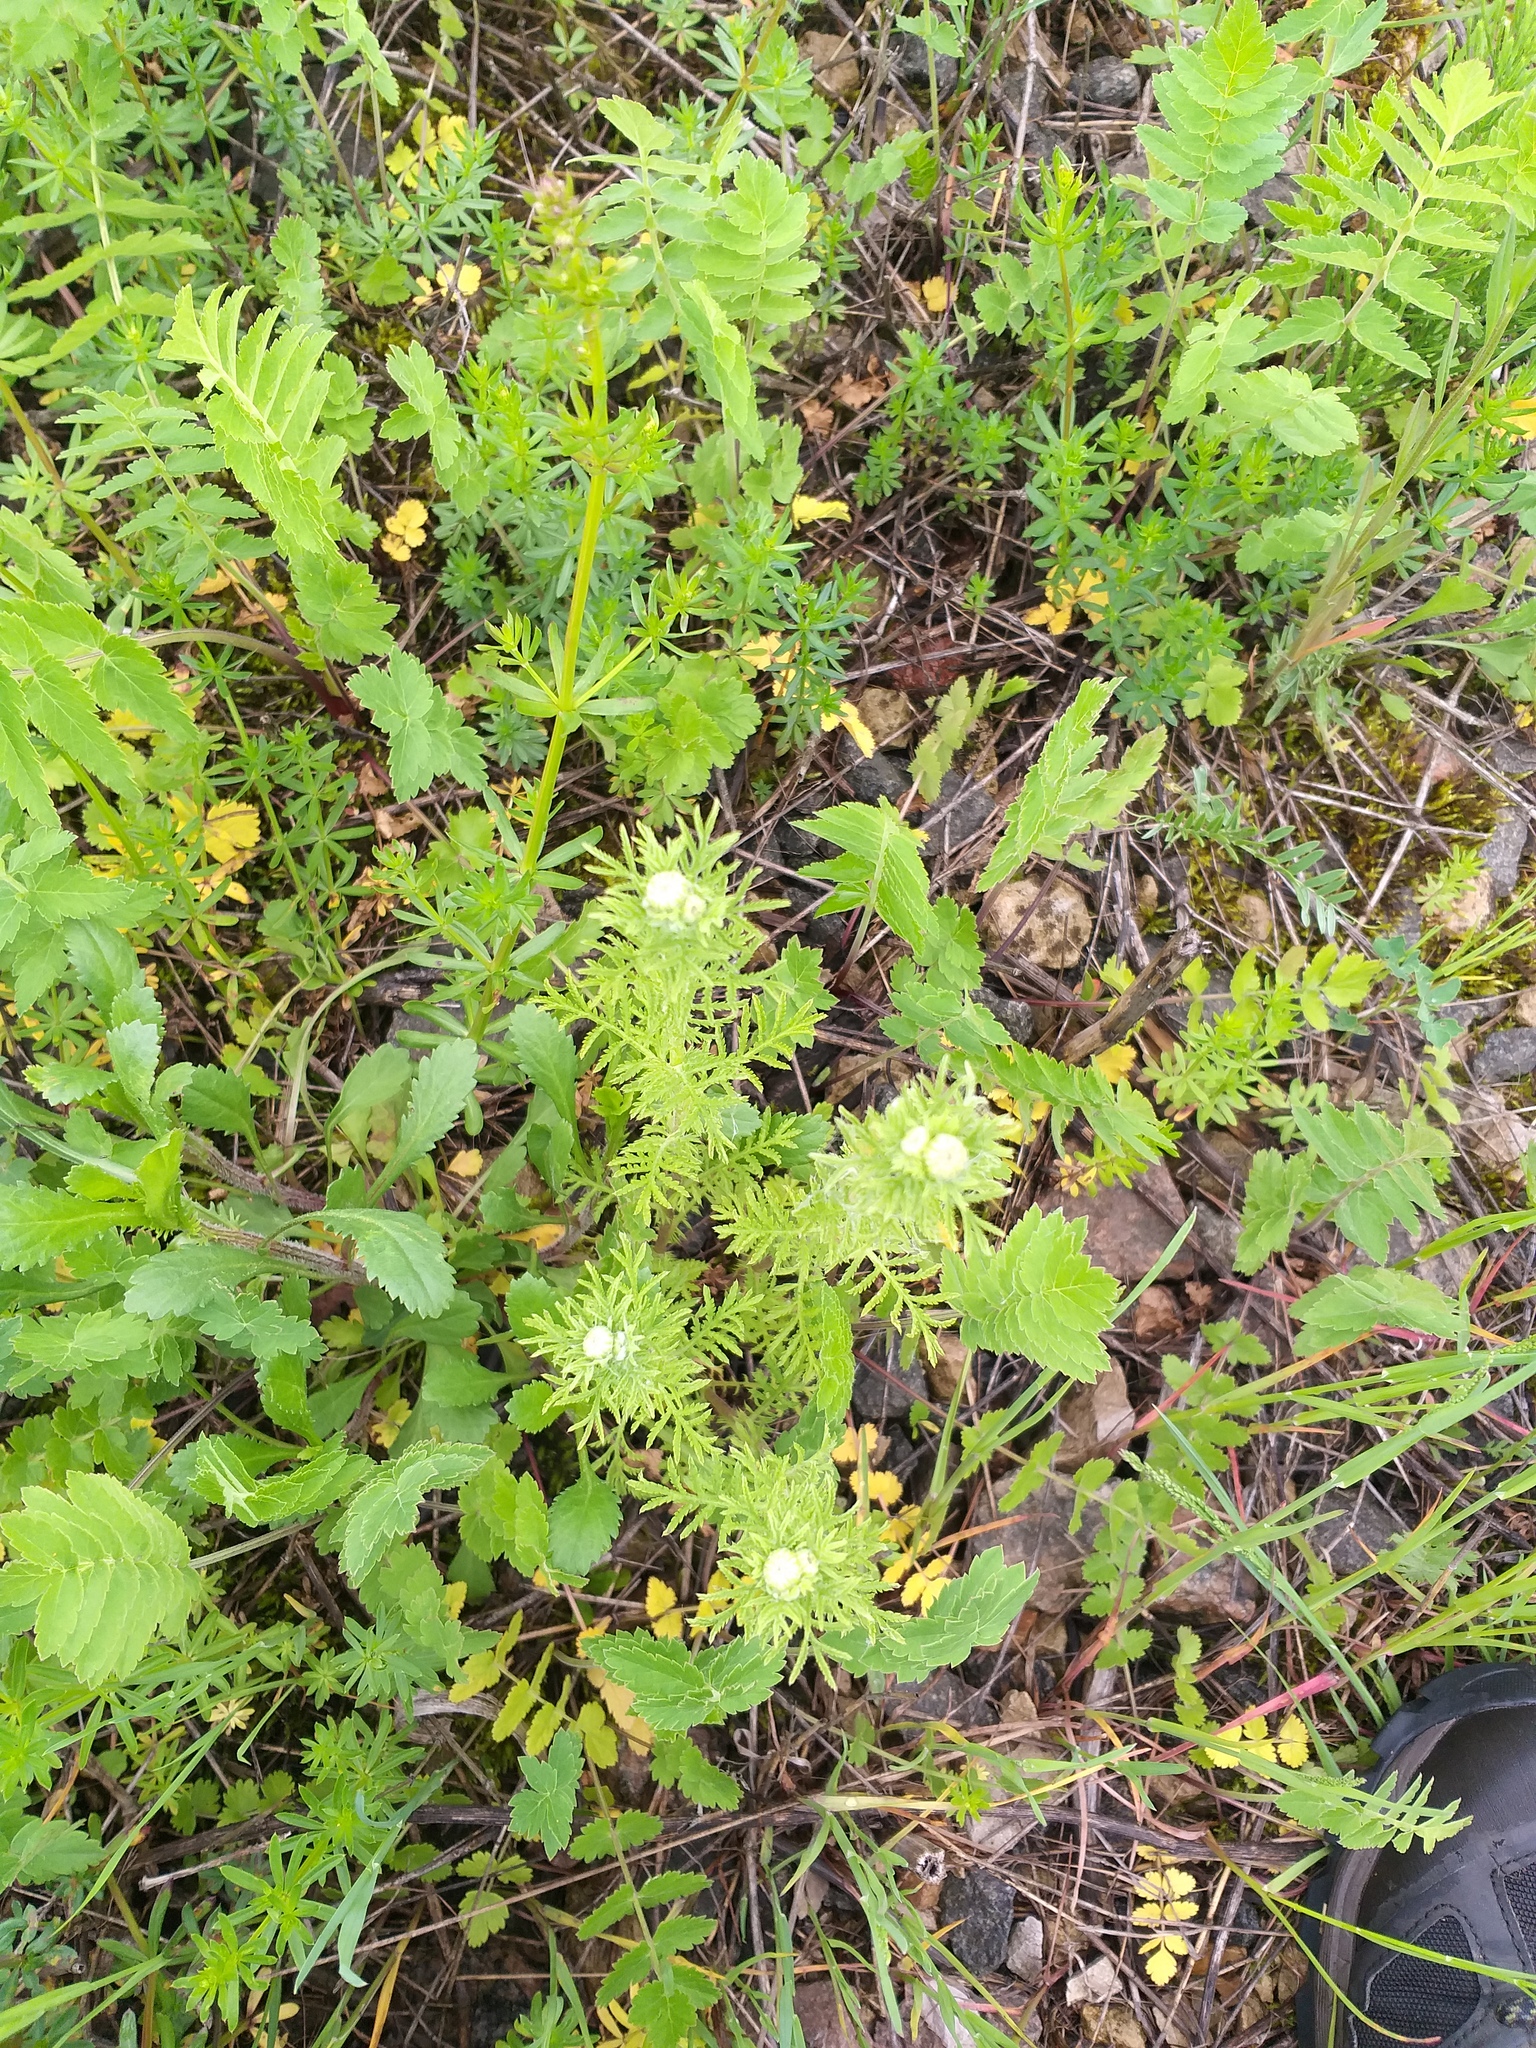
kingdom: Plantae
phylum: Tracheophyta
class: Magnoliopsida
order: Asterales
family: Asteraceae
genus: Cota
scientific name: Cota tinctoria
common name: Golden chamomile
